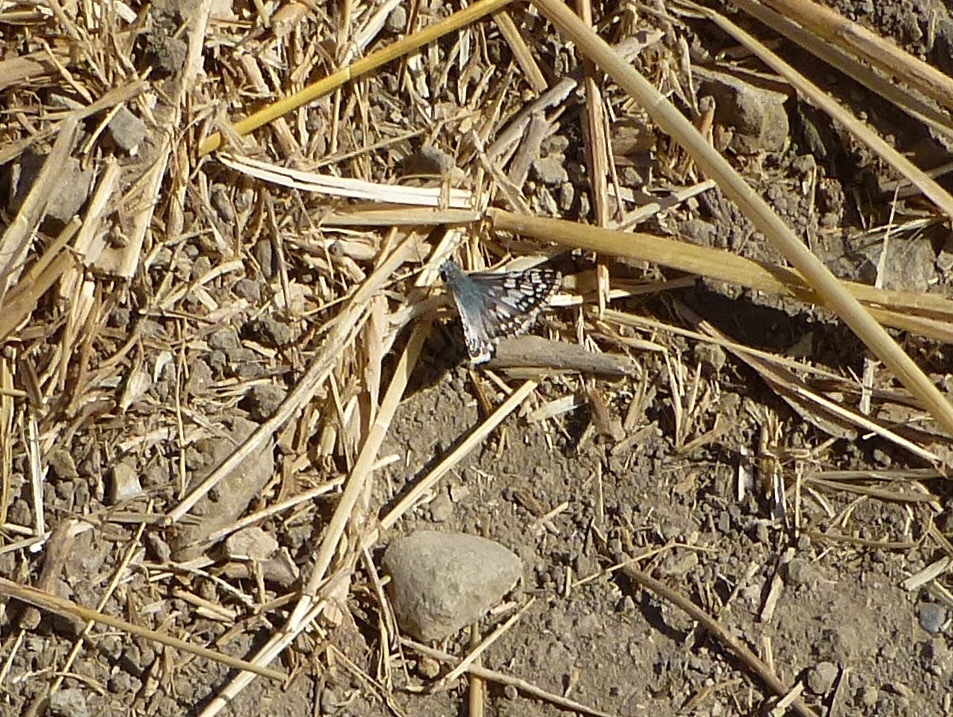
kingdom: Animalia
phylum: Arthropoda
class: Insecta
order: Lepidoptera
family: Hesperiidae
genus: Burnsius
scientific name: Burnsius albezens
